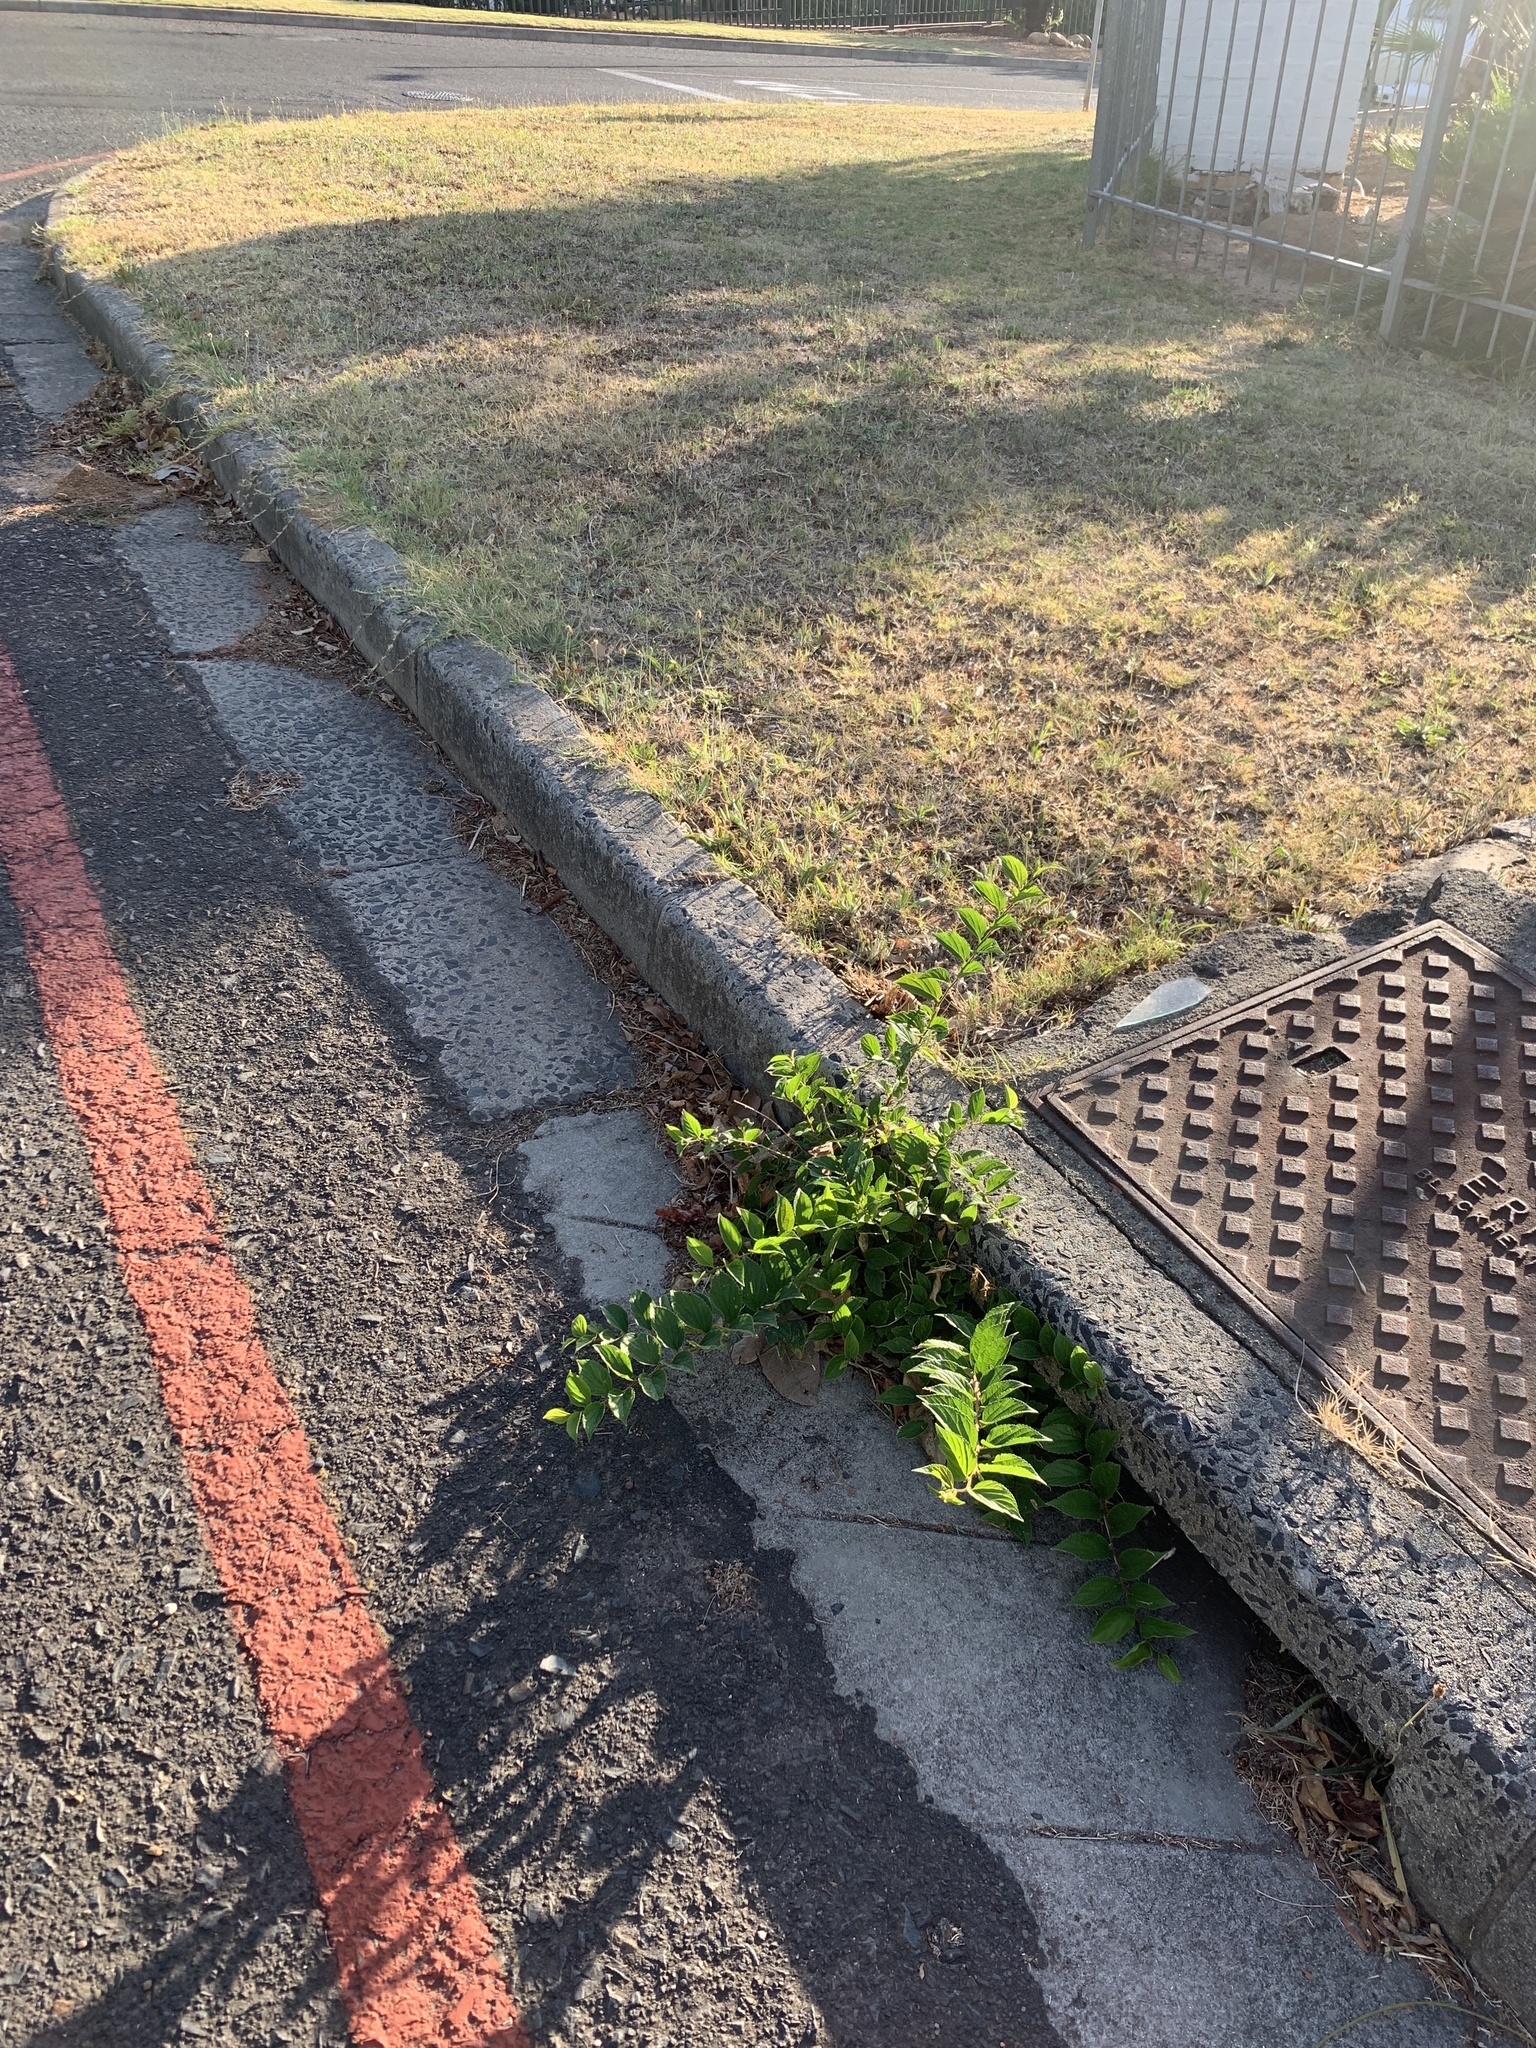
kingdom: Plantae
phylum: Tracheophyta
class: Magnoliopsida
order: Rosales
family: Cannabaceae
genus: Celtis
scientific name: Celtis africana
